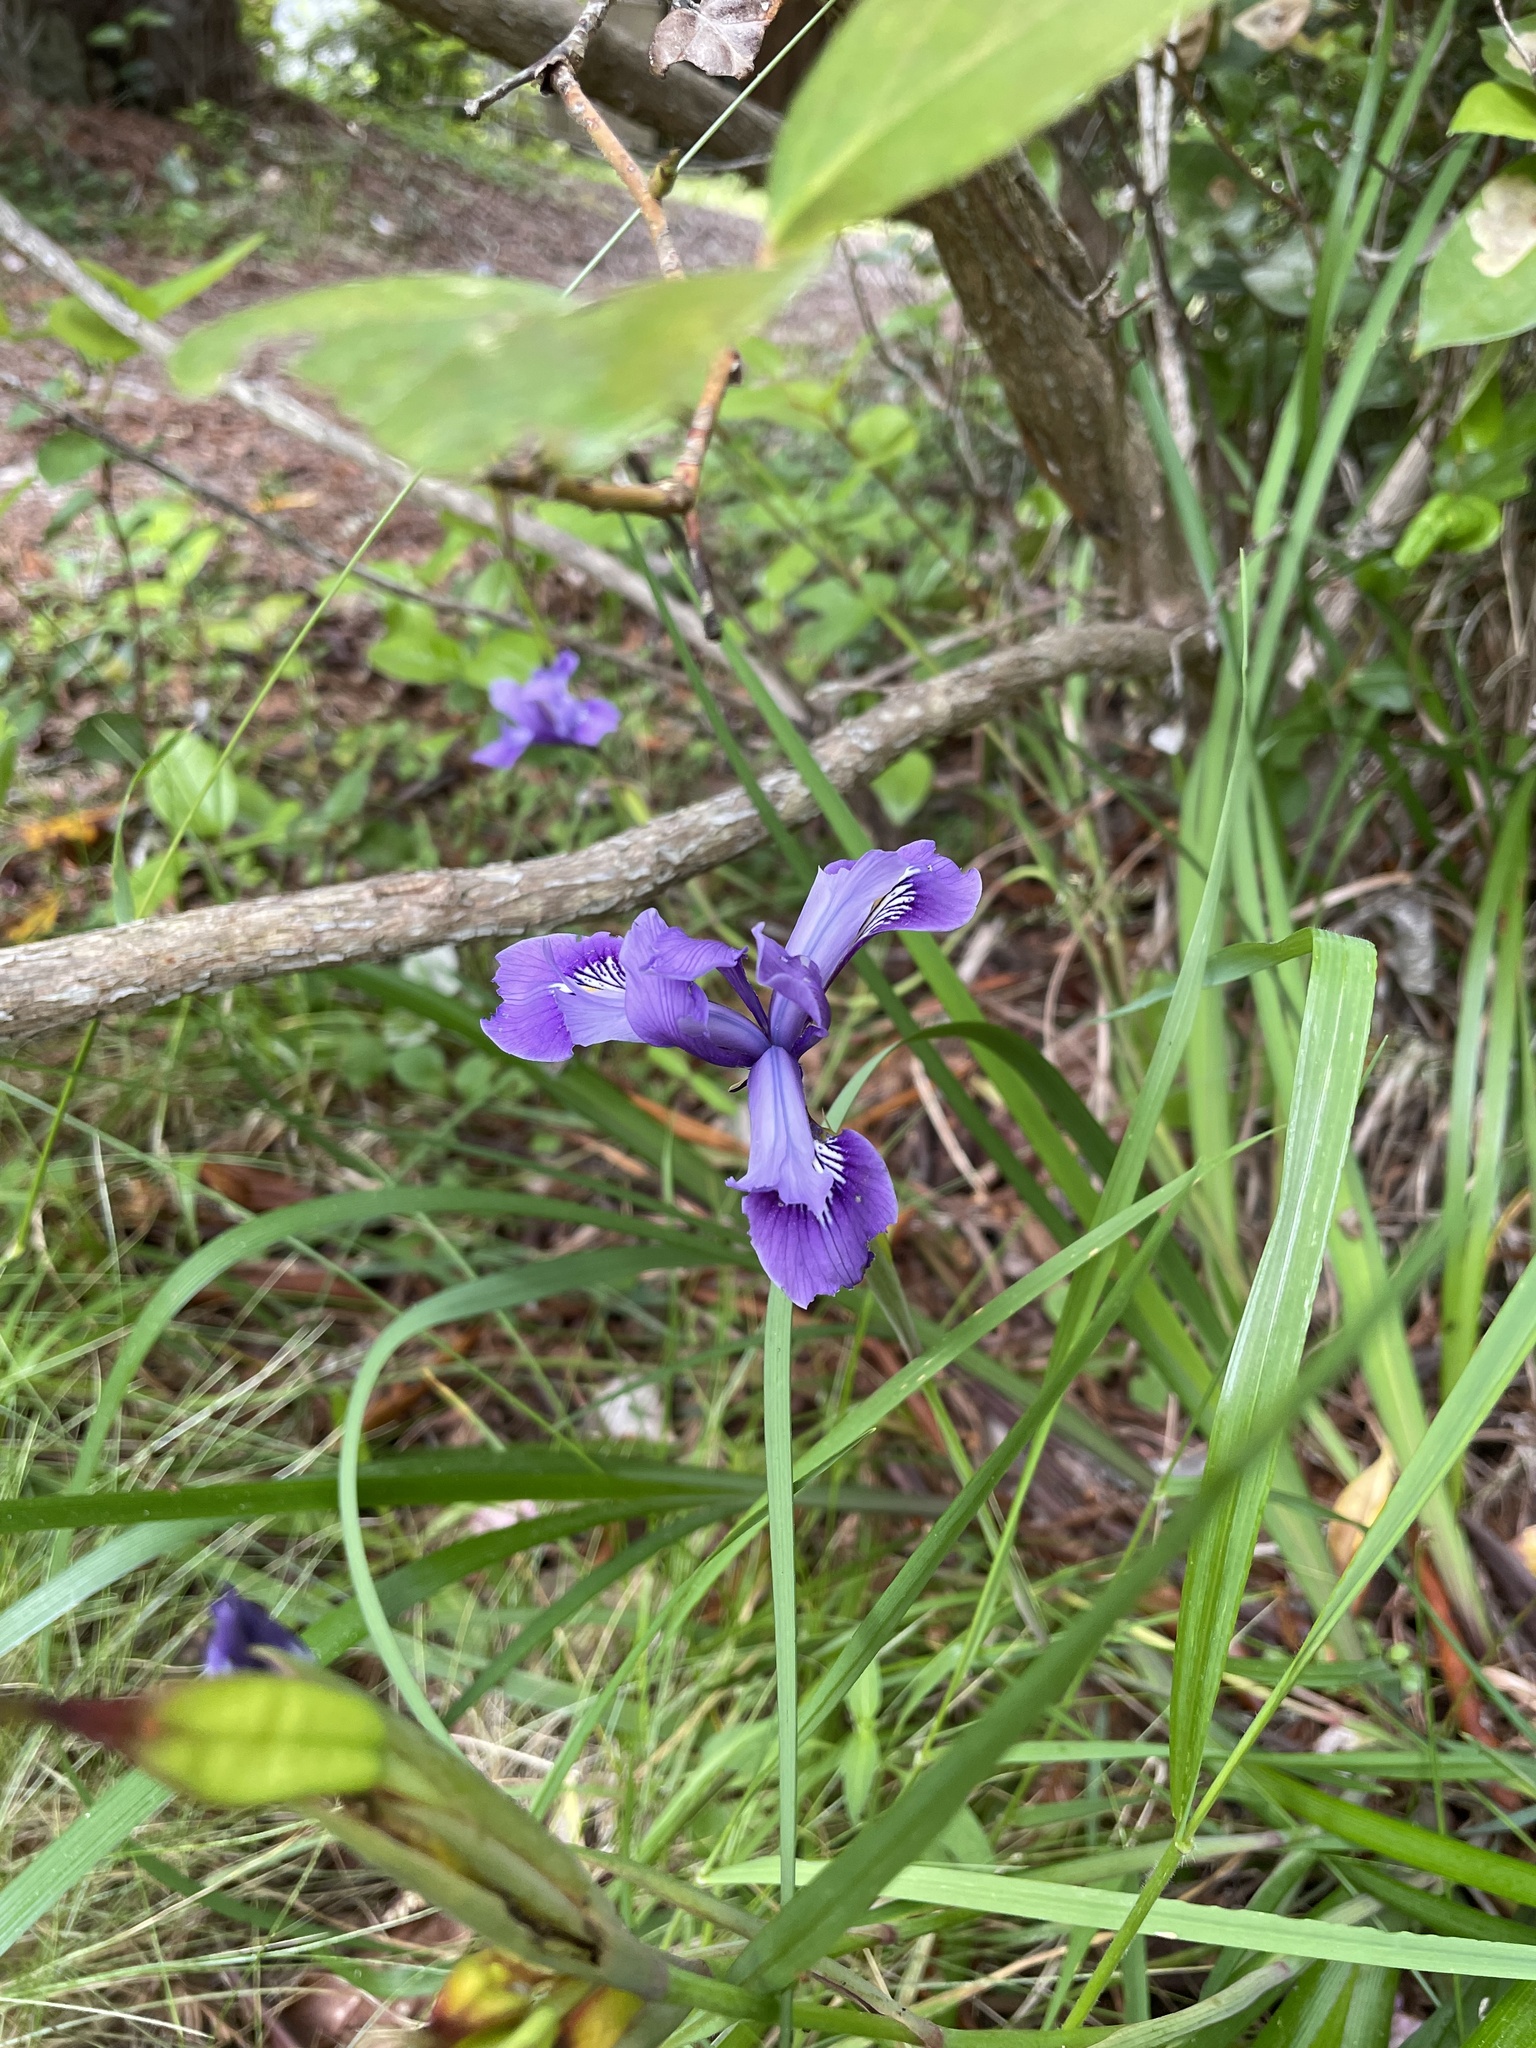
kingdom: Plantae
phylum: Tracheophyta
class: Liliopsida
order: Asparagales
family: Iridaceae
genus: Iris
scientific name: Iris douglasiana
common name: Marin iris
